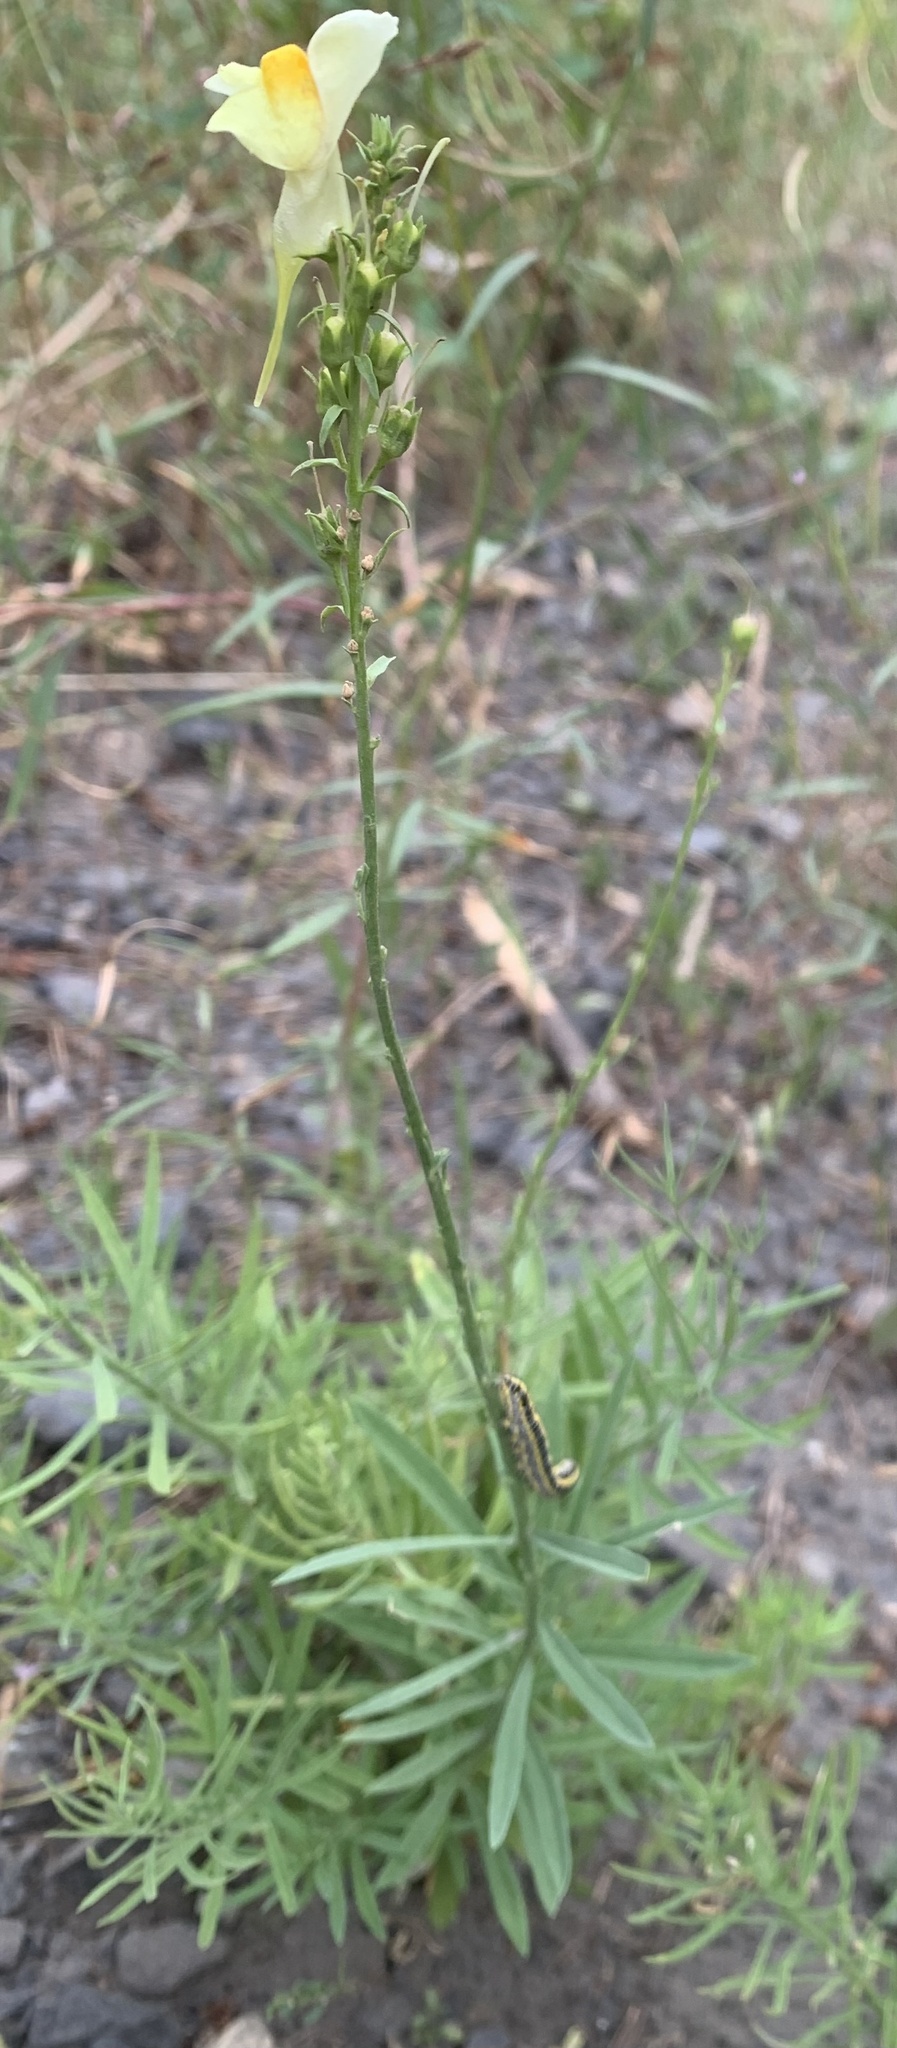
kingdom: Plantae
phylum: Tracheophyta
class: Magnoliopsida
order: Lamiales
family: Plantaginaceae
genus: Linaria
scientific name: Linaria vulgaris
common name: Butter and eggs
